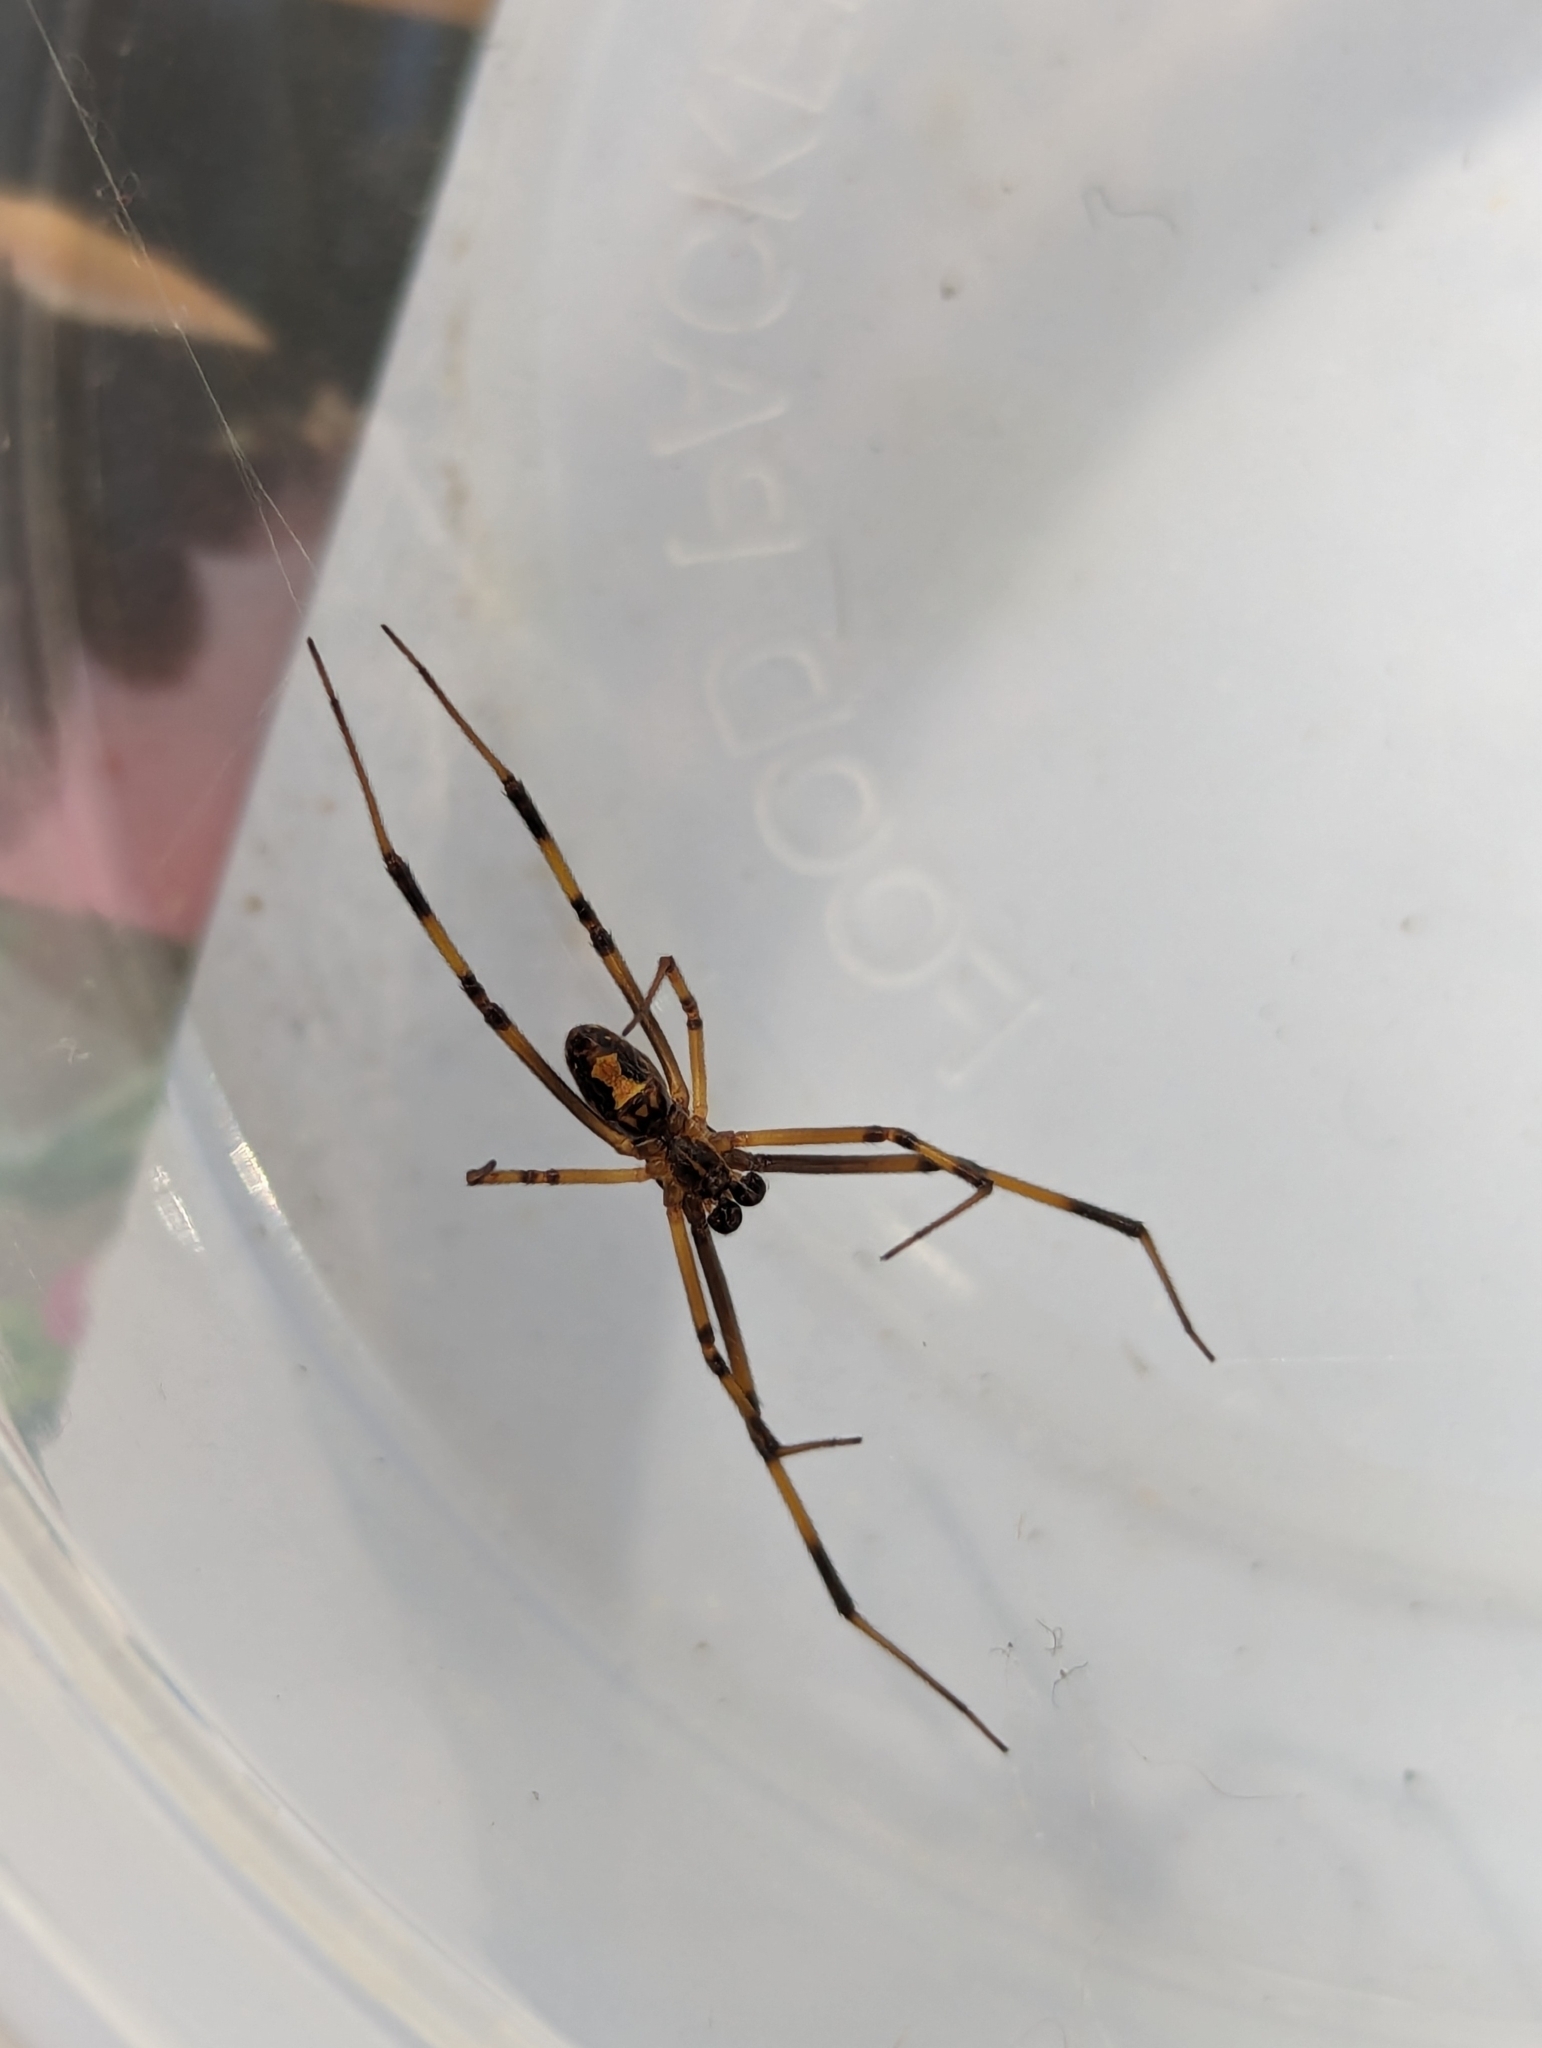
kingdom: Animalia
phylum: Arthropoda
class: Arachnida
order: Araneae
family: Theridiidae
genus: Latrodectus
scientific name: Latrodectus hesperus
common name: Western black widow
